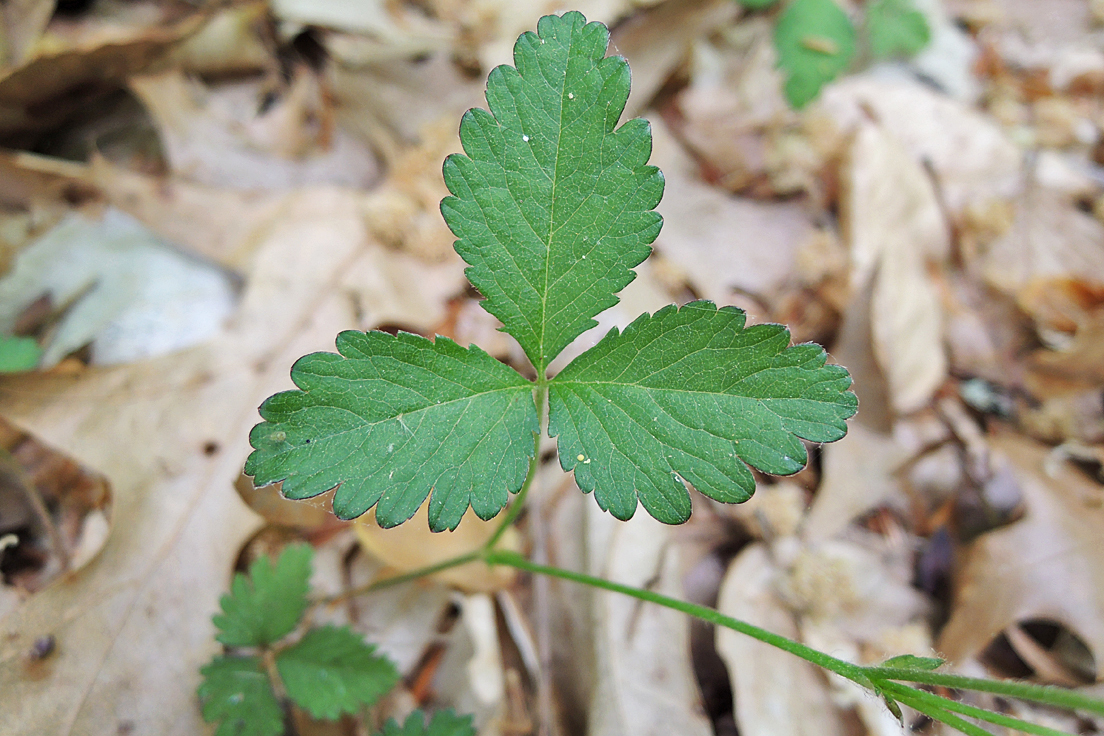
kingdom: Plantae
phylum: Tracheophyta
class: Magnoliopsida
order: Rosales
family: Rosaceae
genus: Potentilla
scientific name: Potentilla indica
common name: Yellow-flowered strawberry
